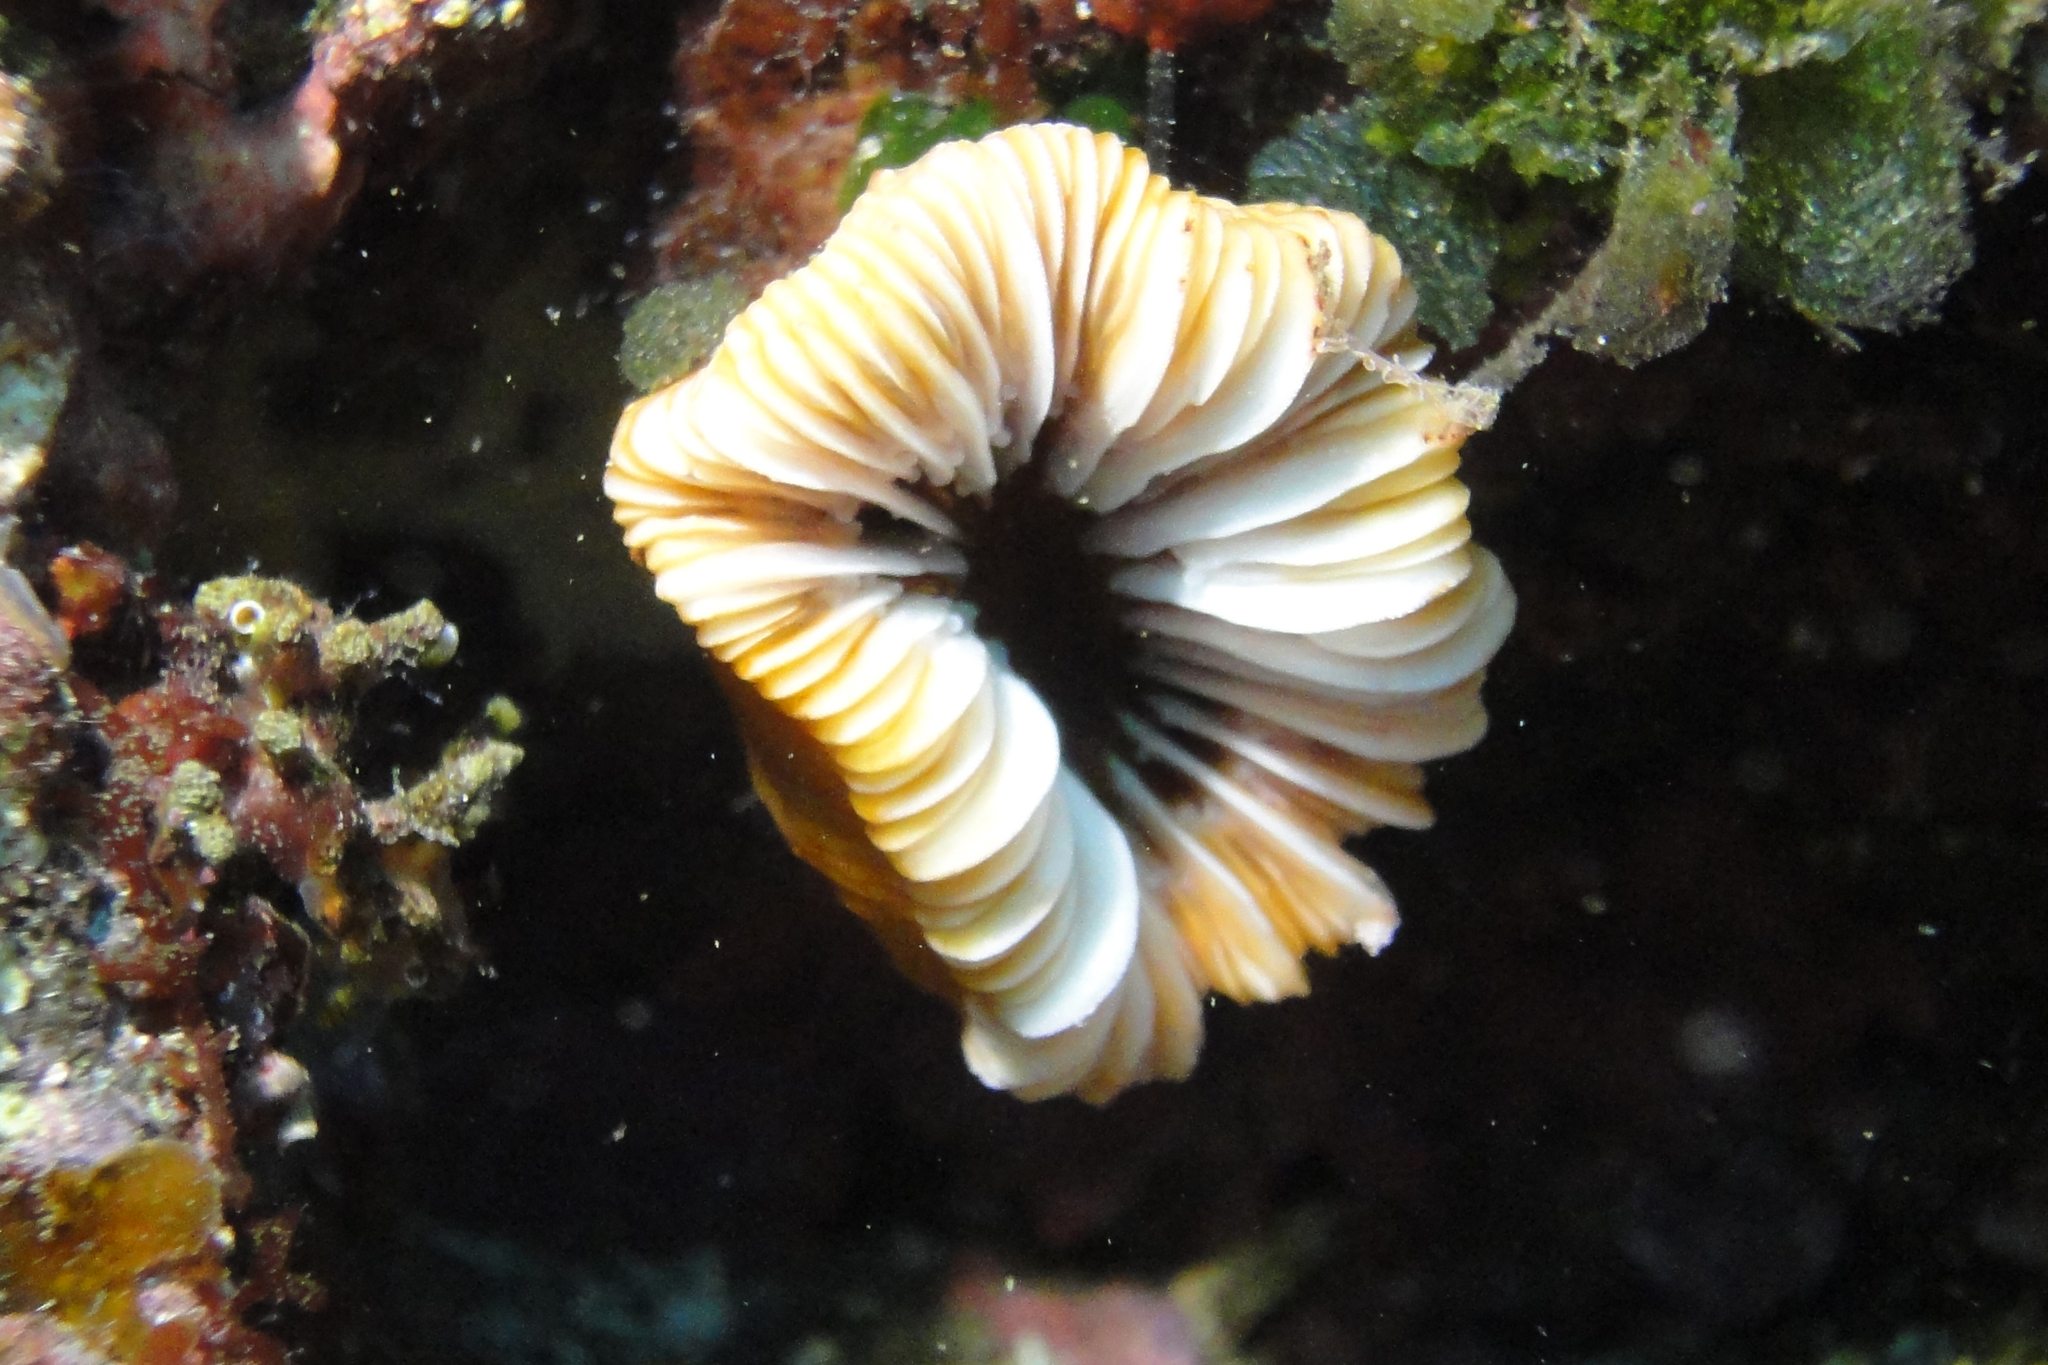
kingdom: Animalia
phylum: Cnidaria
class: Anthozoa
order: Scleractinia
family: Caryophylliidae
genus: Bathycyathus
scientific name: Bathycyathus chilensis
